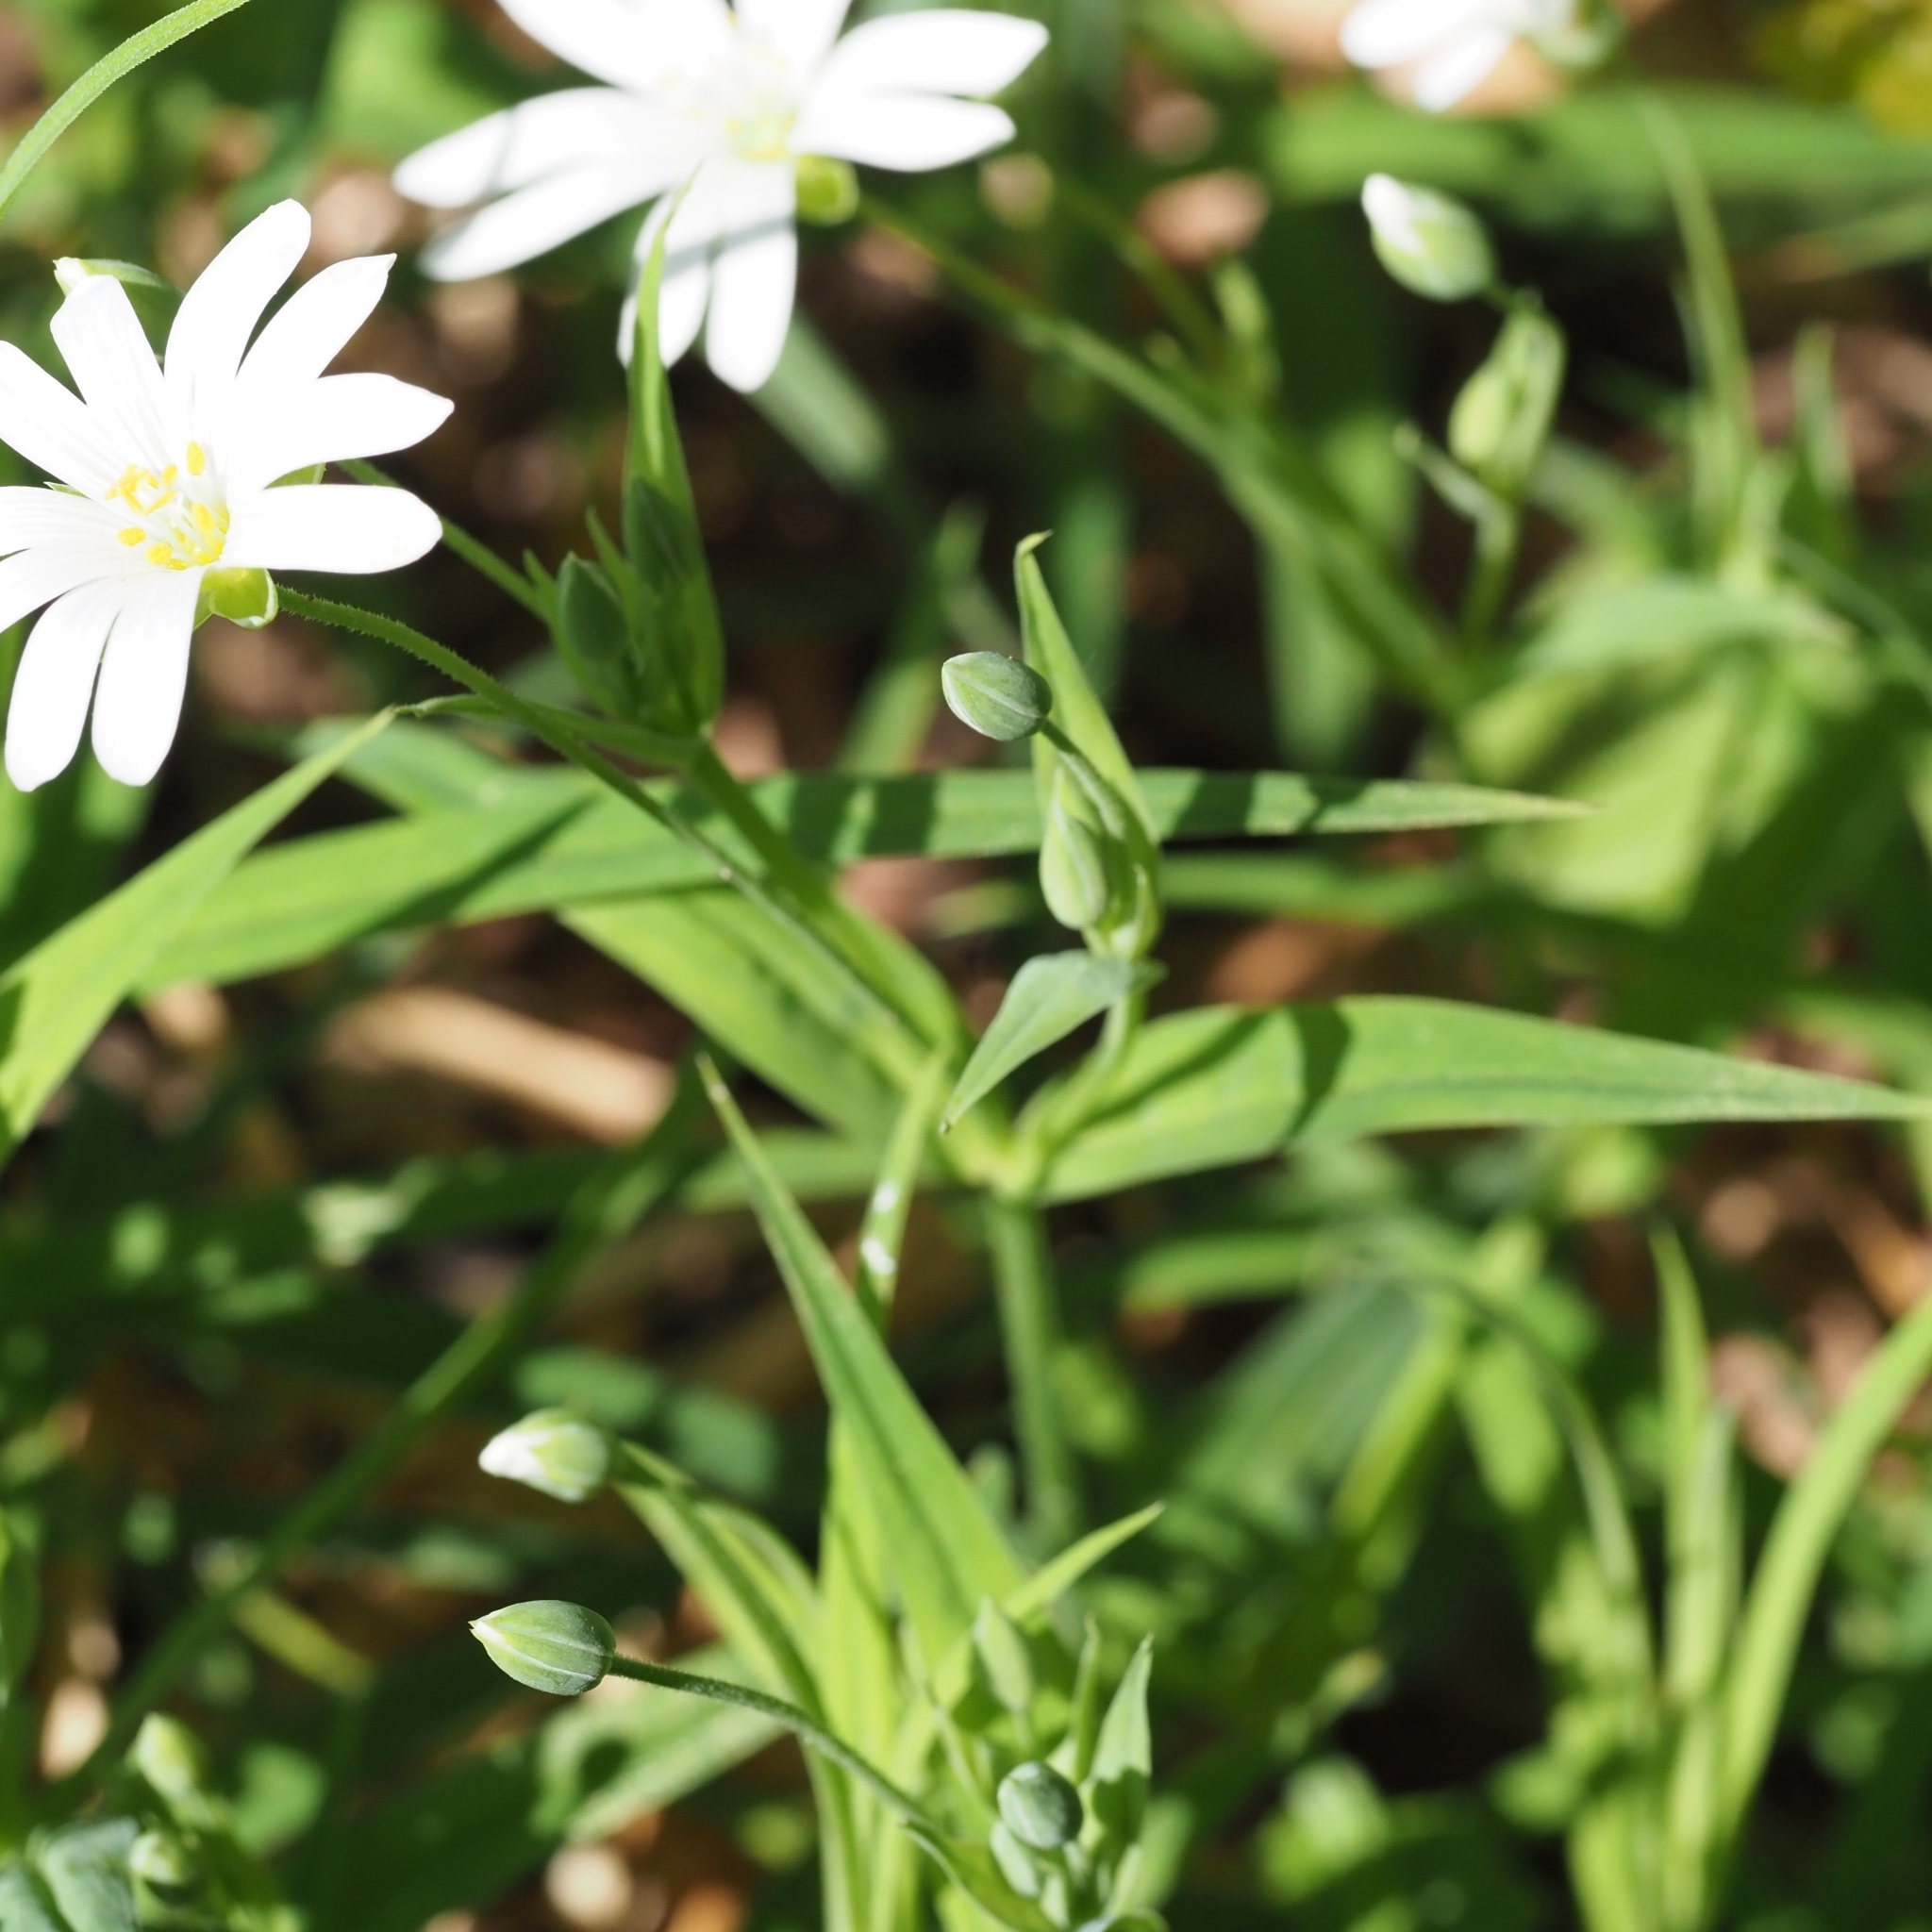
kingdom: Plantae
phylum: Tracheophyta
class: Magnoliopsida
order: Caryophyllales
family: Caryophyllaceae
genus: Rabelera
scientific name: Rabelera holostea
